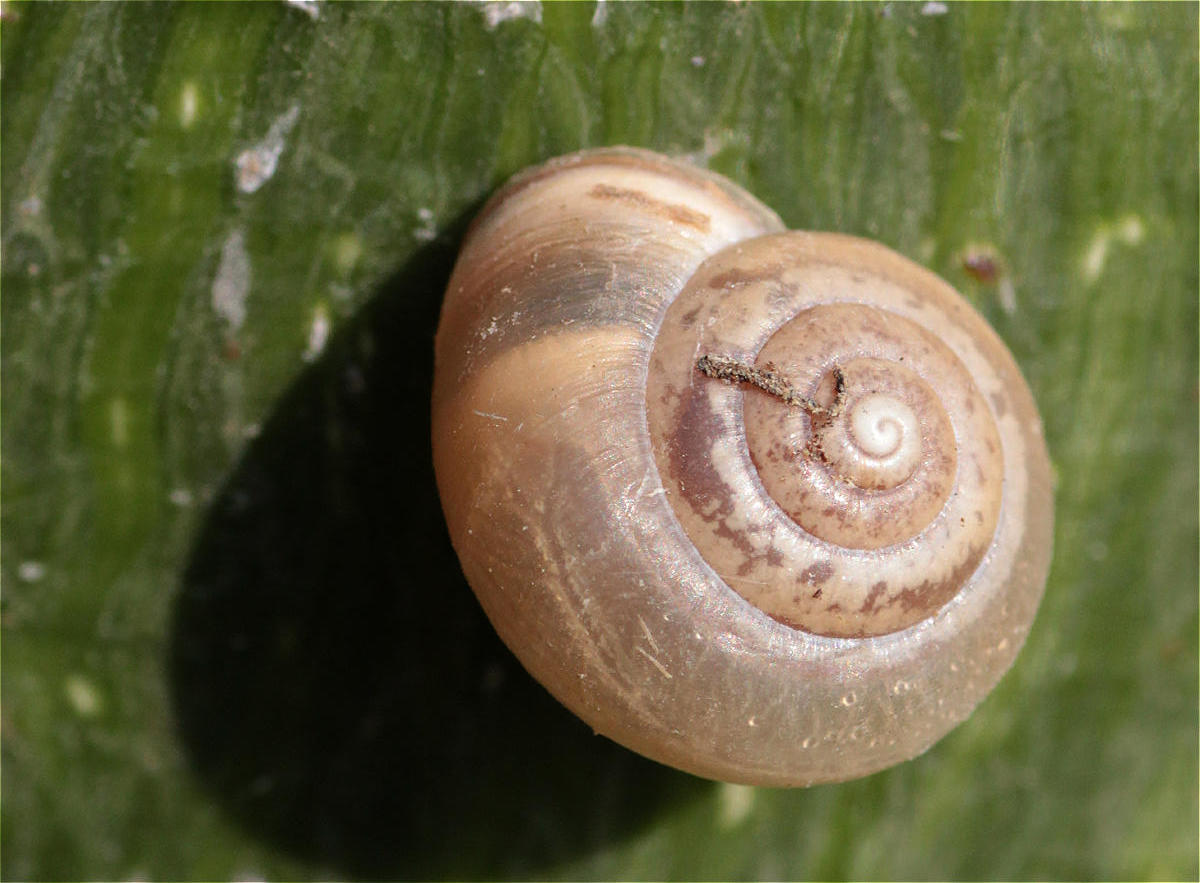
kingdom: Animalia
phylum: Mollusca
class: Gastropoda
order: Stylommatophora
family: Hygromiidae
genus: Monacha
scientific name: Monacha obstructa
